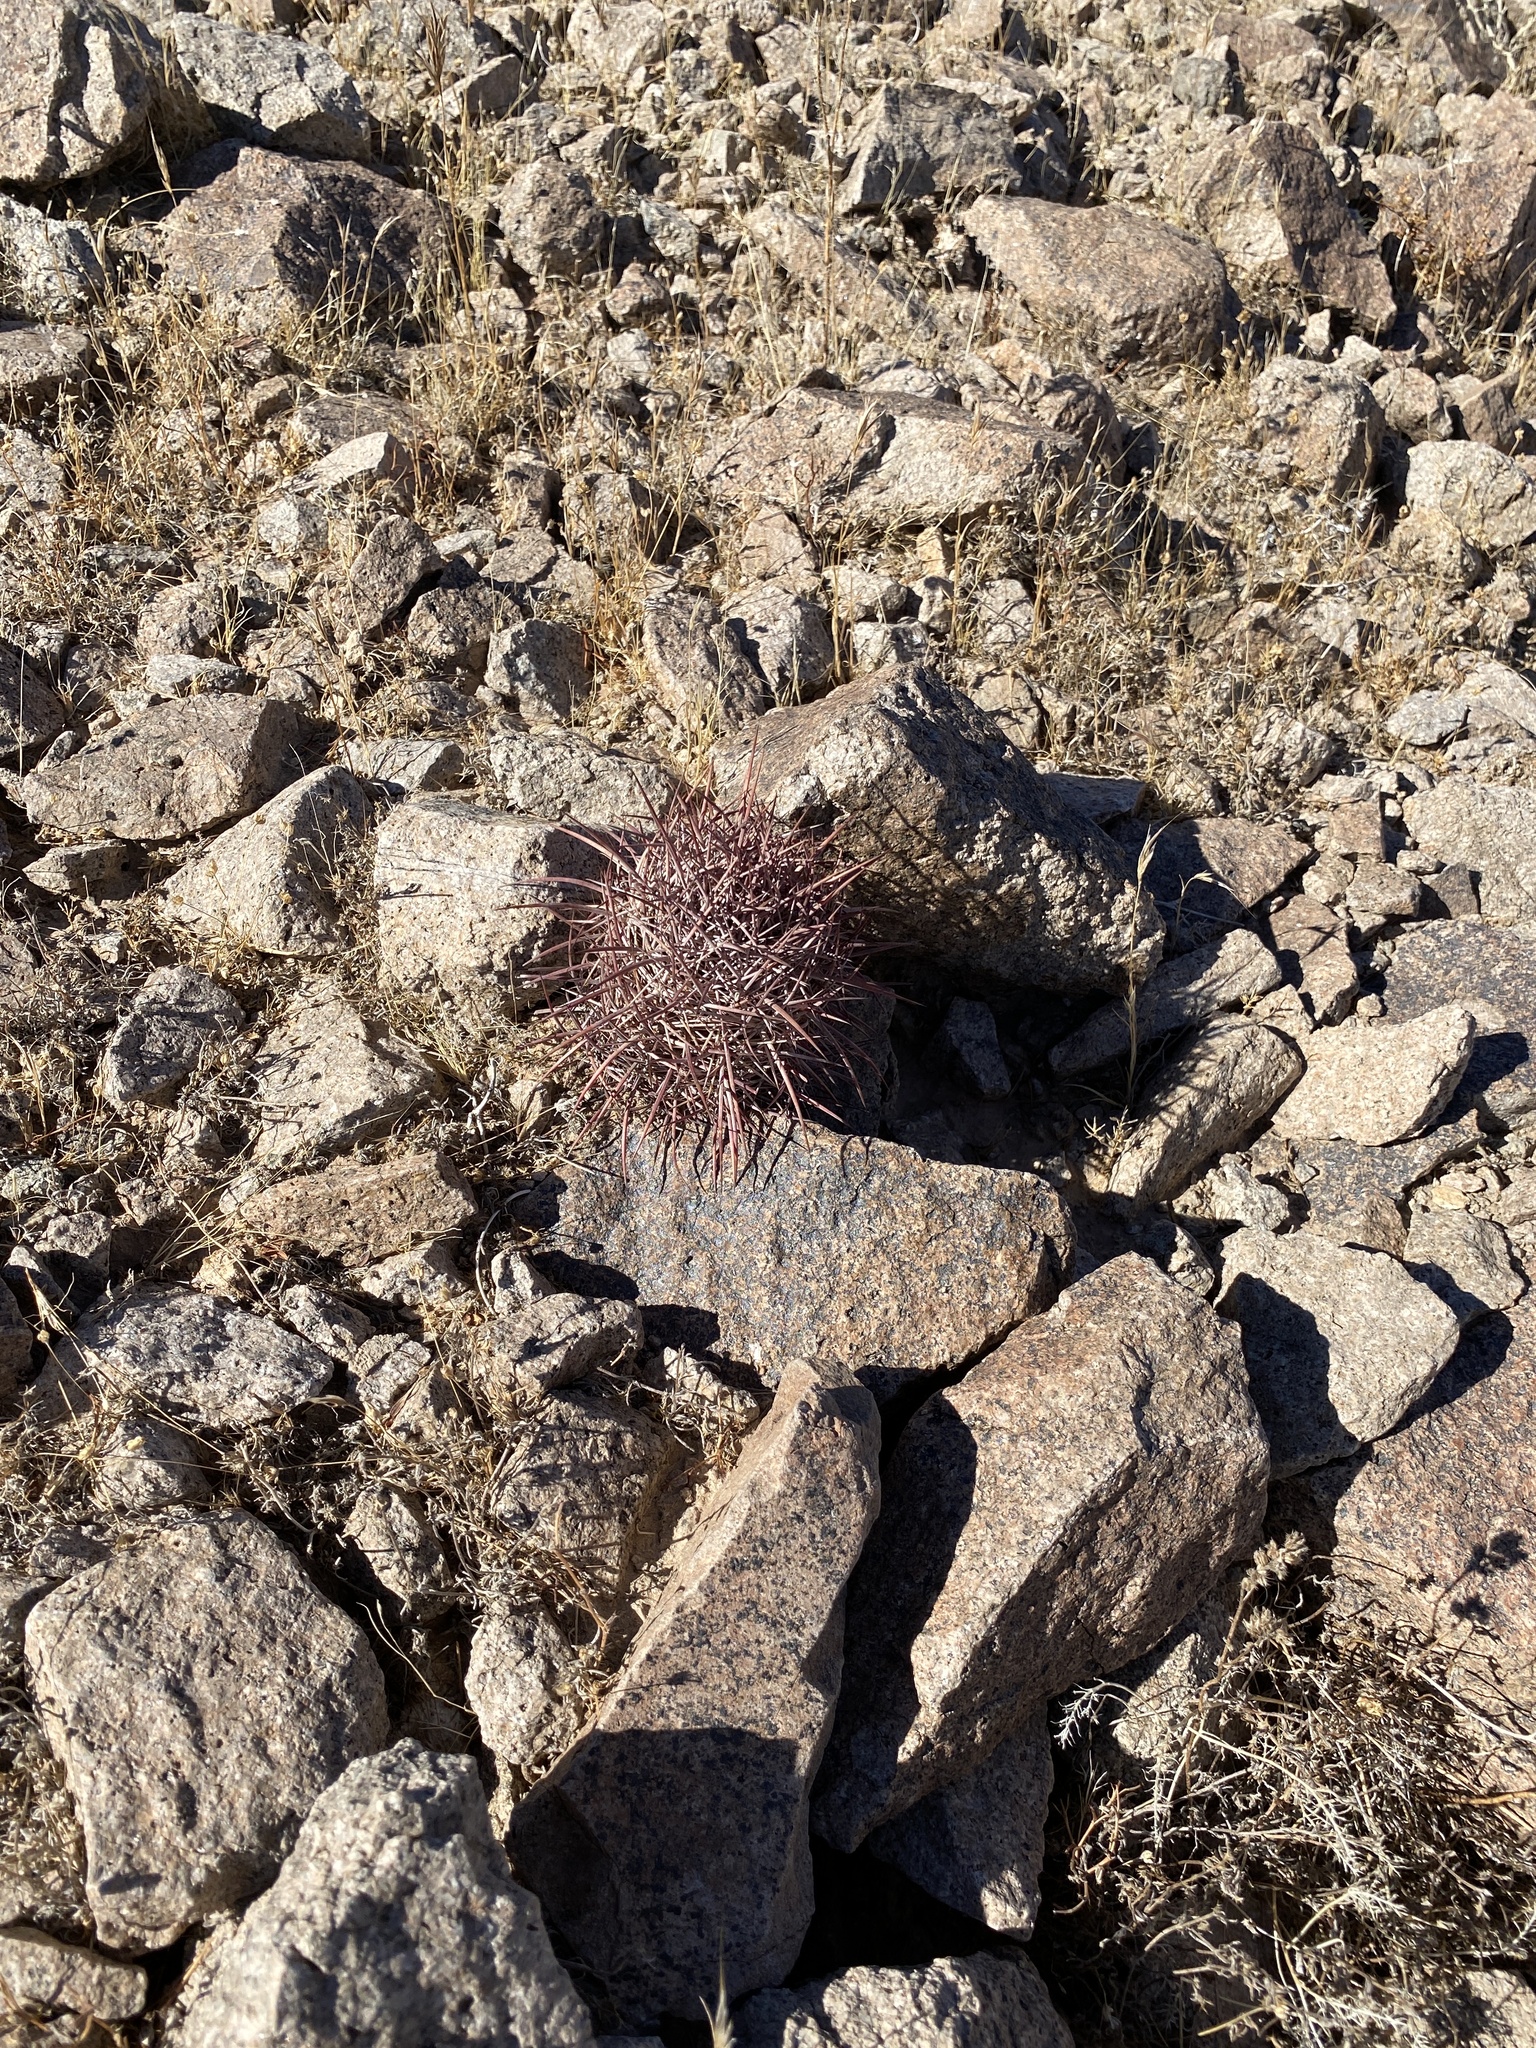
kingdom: Plantae
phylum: Tracheophyta
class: Magnoliopsida
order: Caryophyllales
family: Cactaceae
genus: Sclerocactus
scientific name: Sclerocactus johnsonii
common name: Eight-spine fishhook cactus
